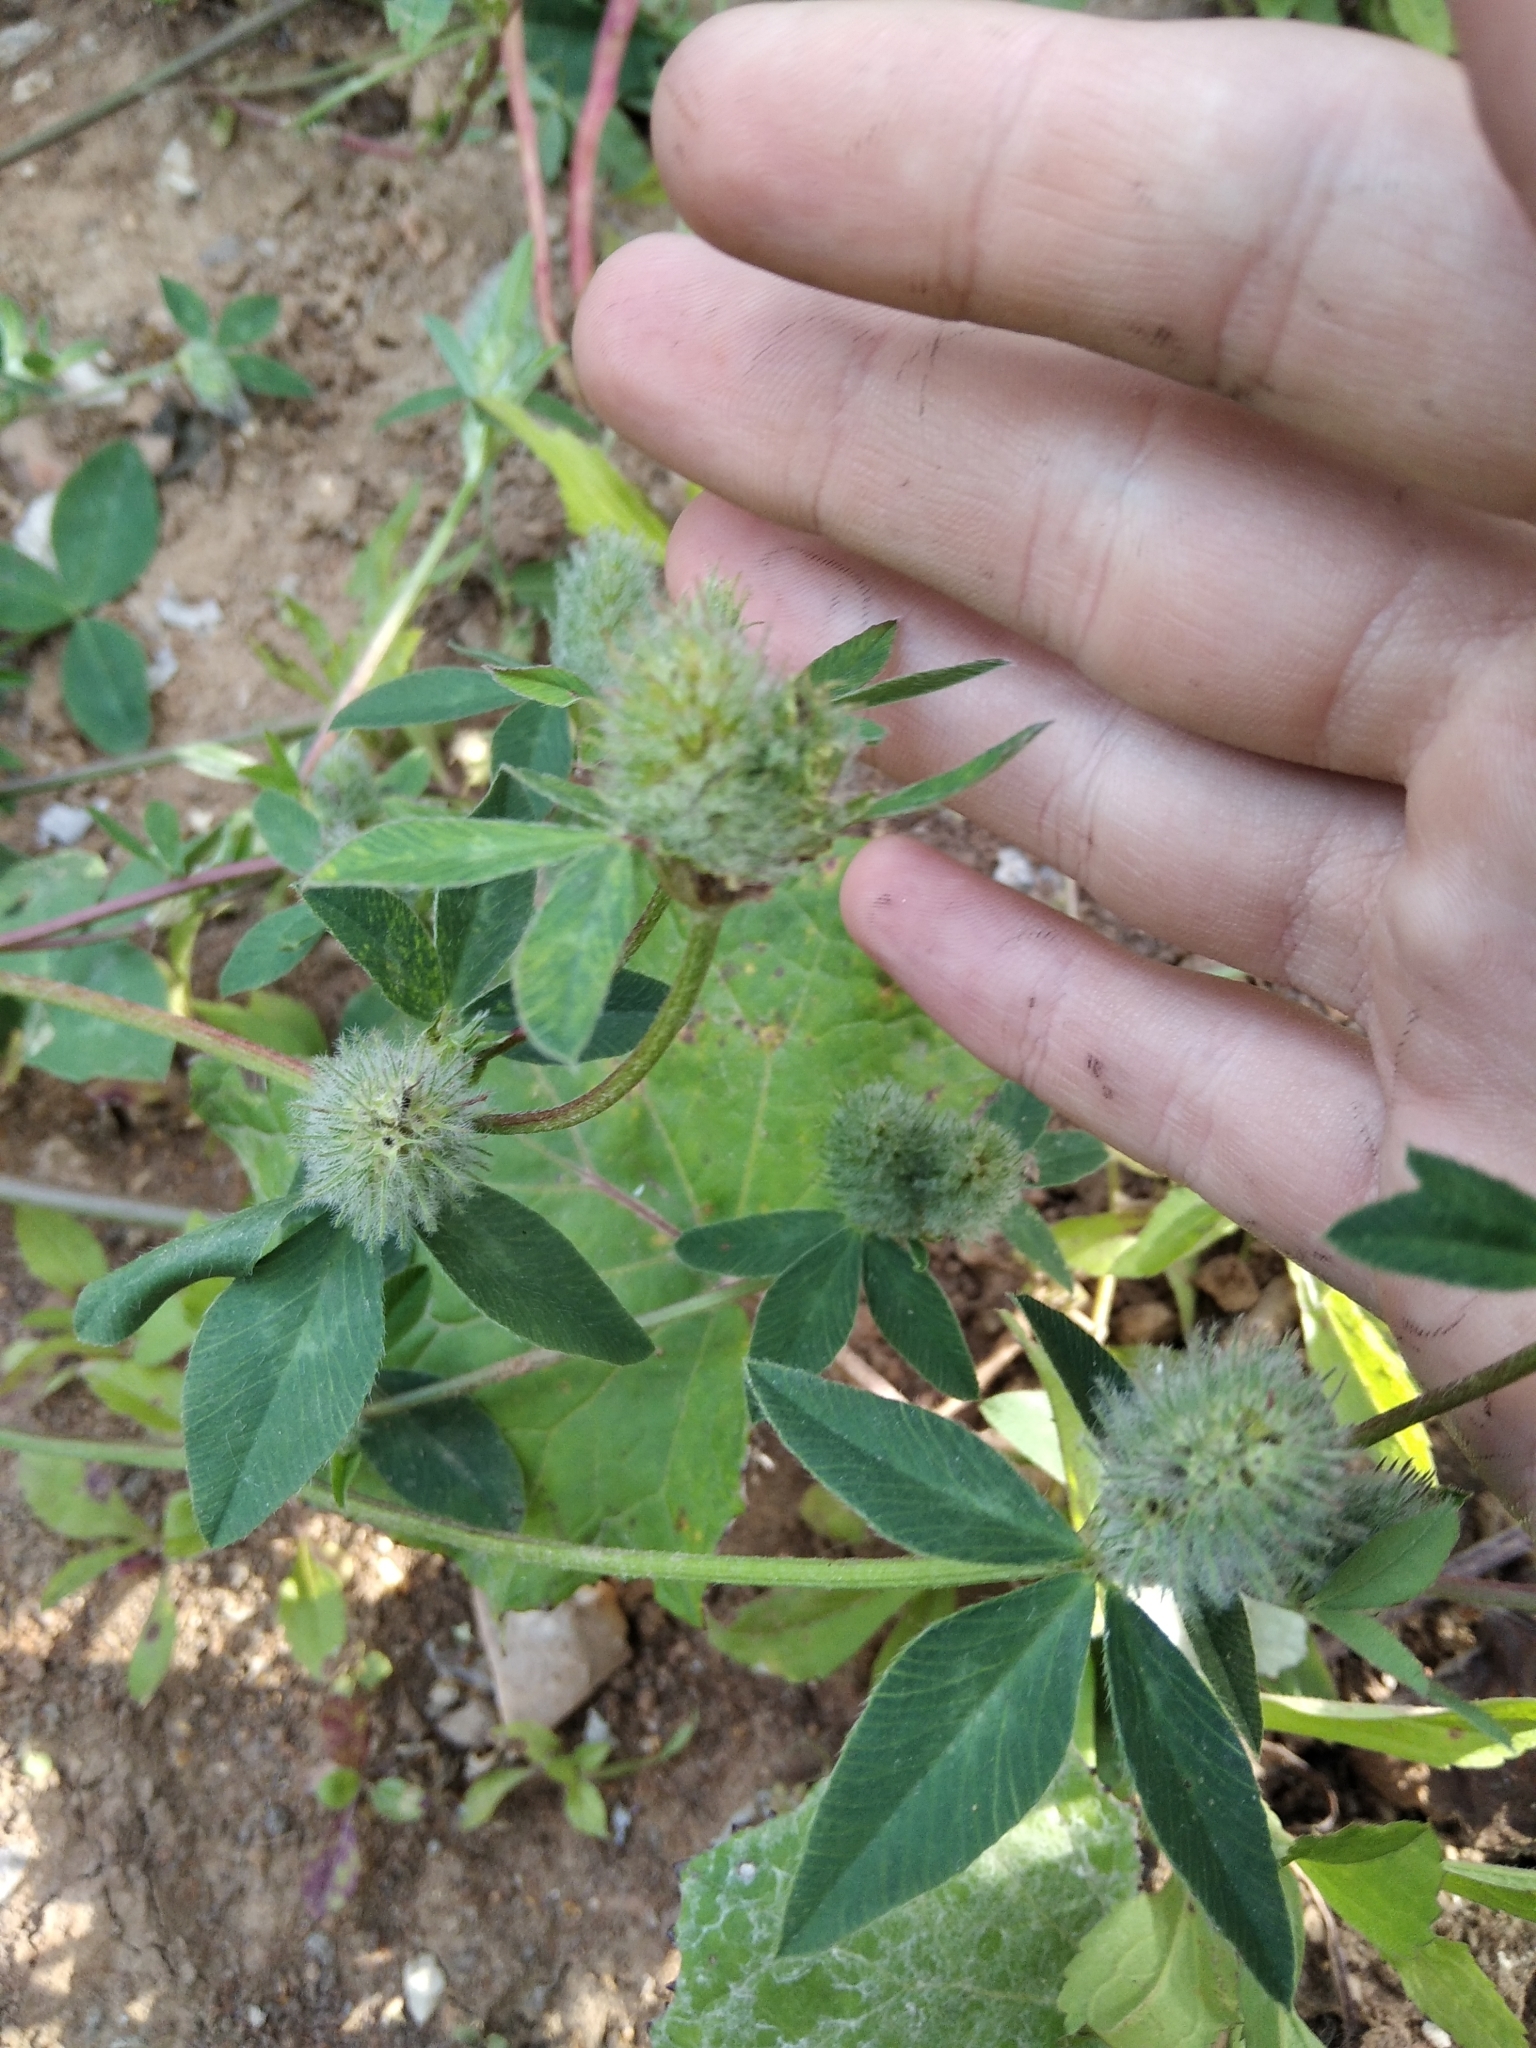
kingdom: Plantae
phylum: Tracheophyta
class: Magnoliopsida
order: Fabales
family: Fabaceae
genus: Trifolium
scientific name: Trifolium pratense
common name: Red clover
